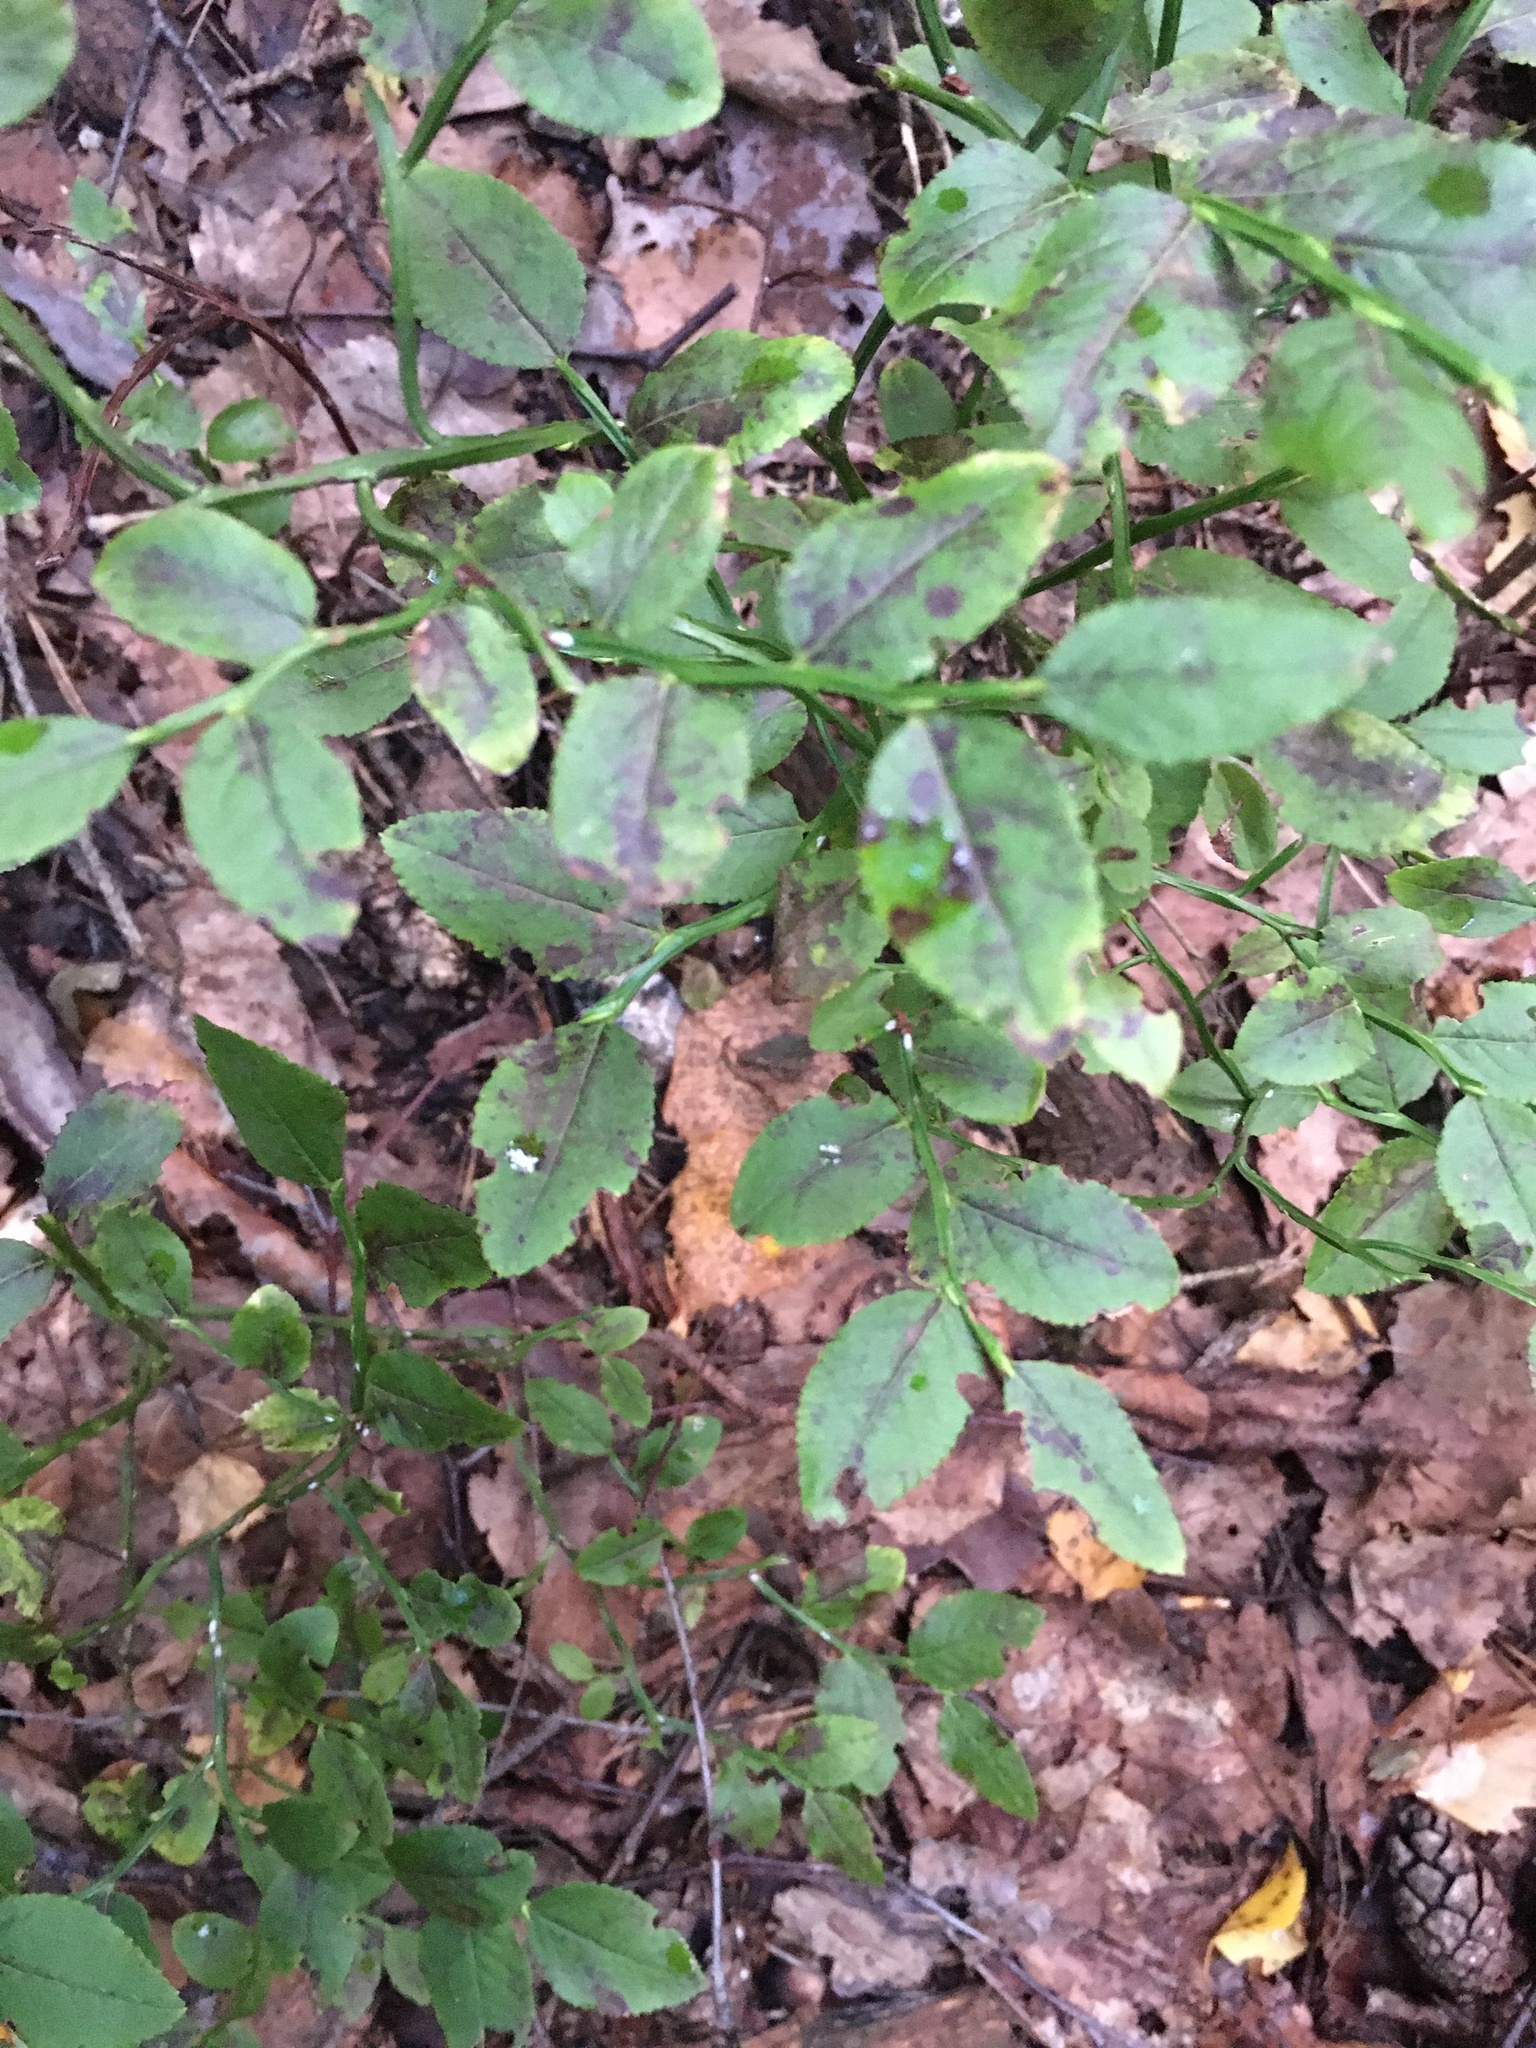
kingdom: Plantae
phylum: Tracheophyta
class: Magnoliopsida
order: Ericales
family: Ericaceae
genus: Vaccinium
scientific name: Vaccinium myrtillus
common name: Bilberry
